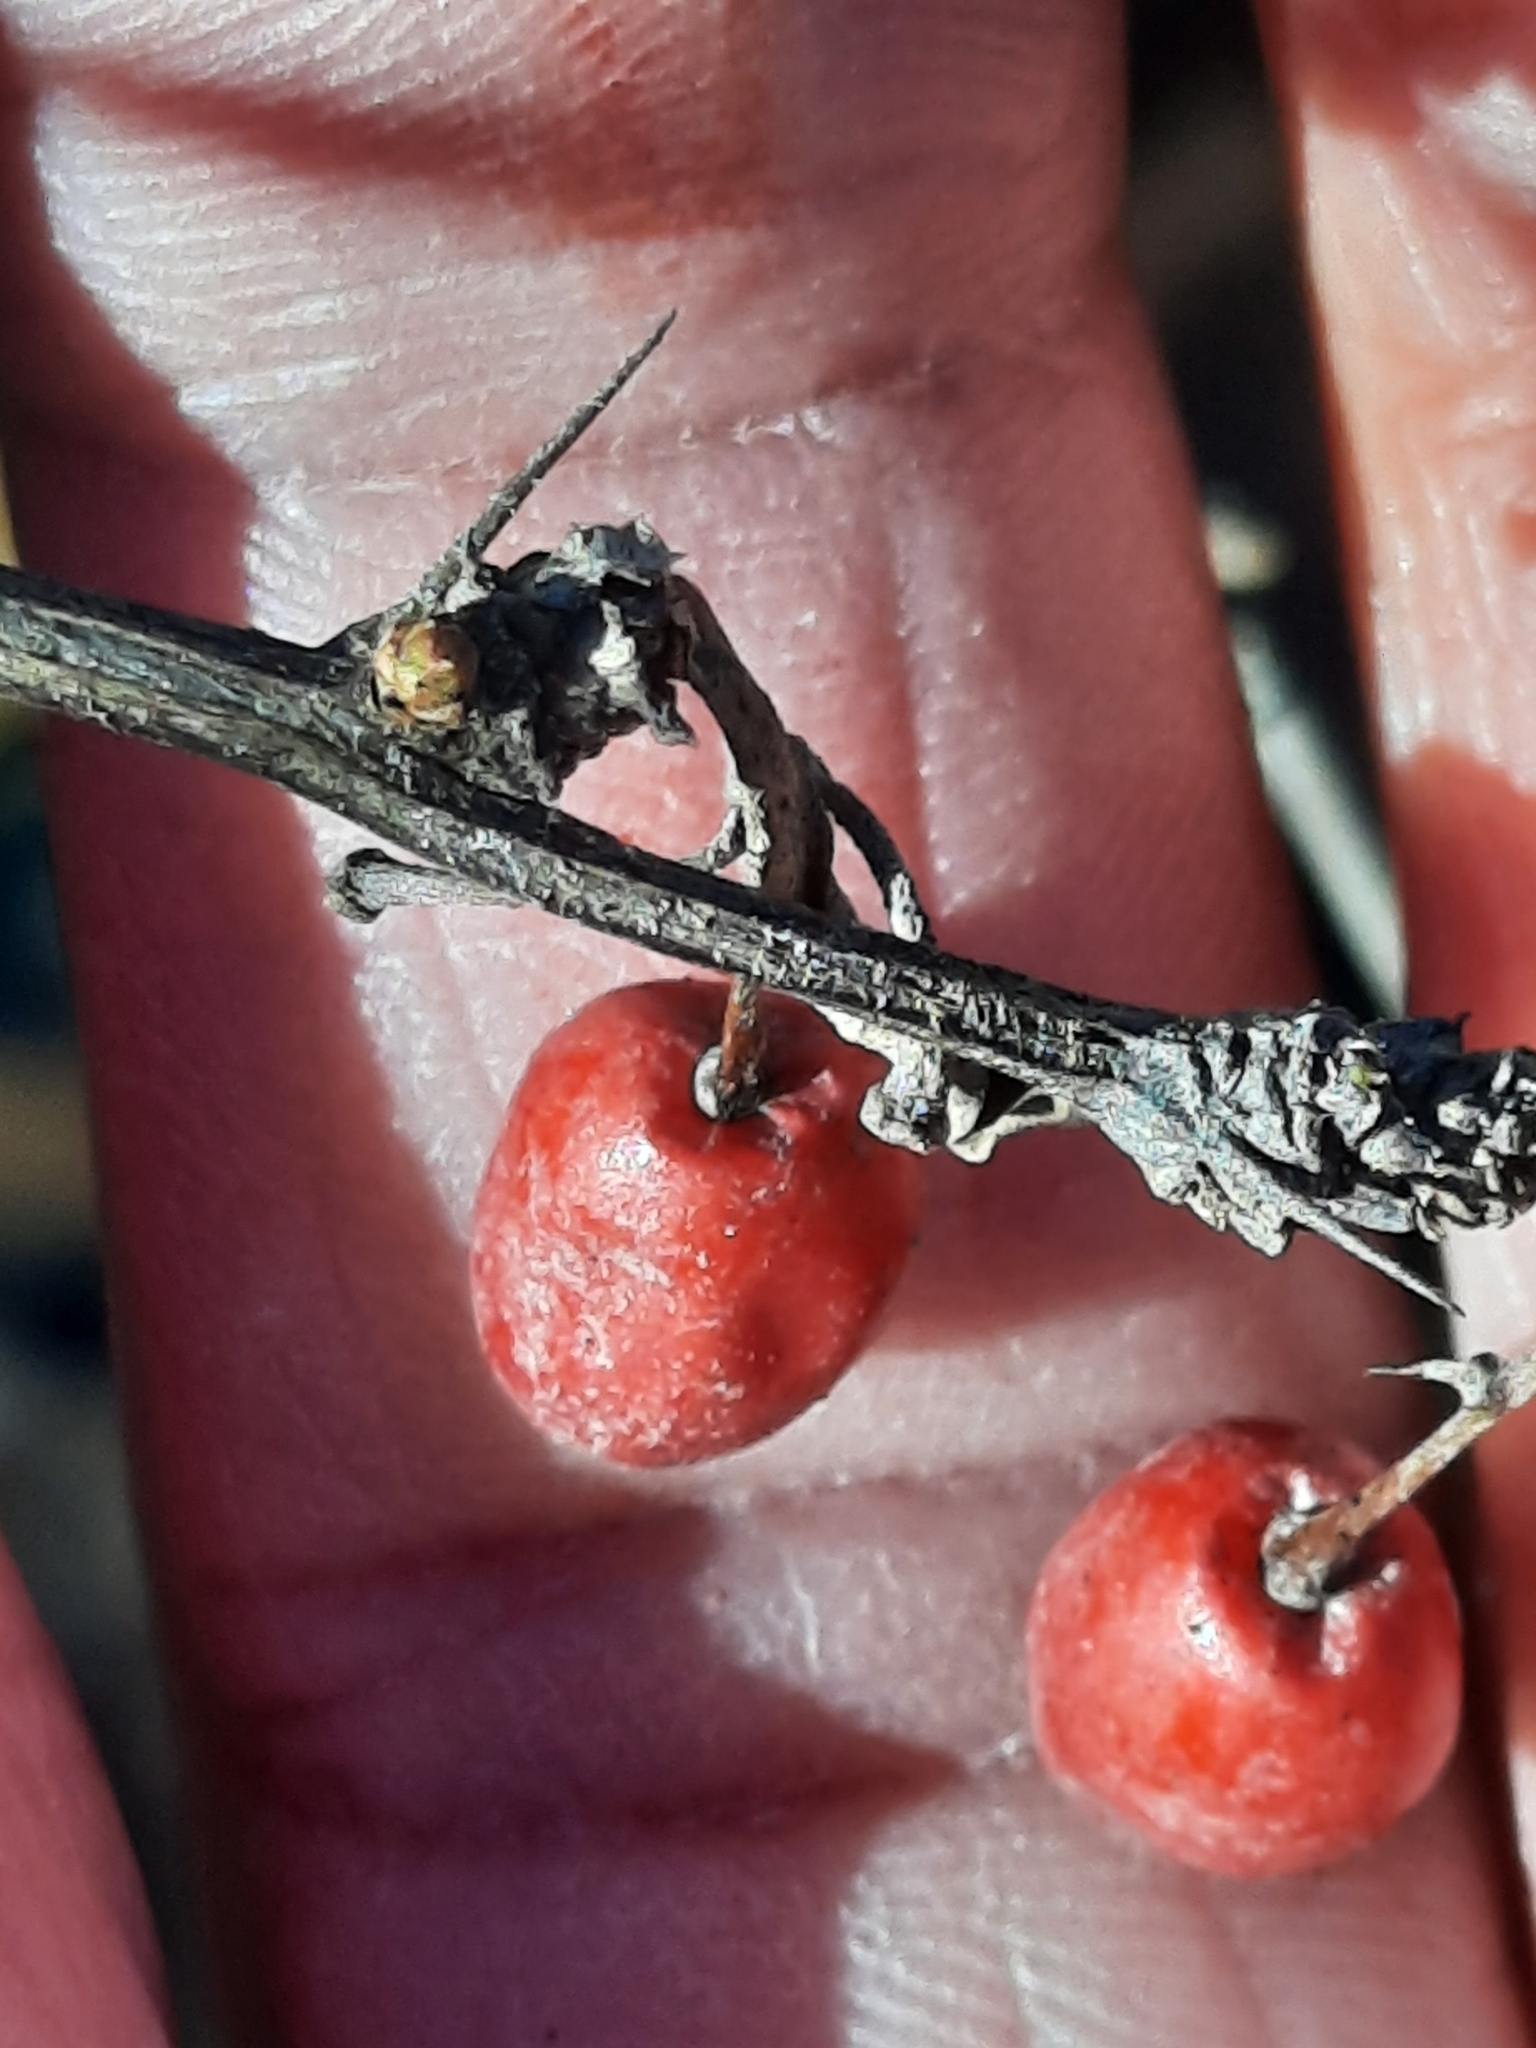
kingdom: Plantae
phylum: Tracheophyta
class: Magnoliopsida
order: Ranunculales
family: Berberidaceae
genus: Berberis
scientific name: Berberis thunbergii
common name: Japanese barberry
